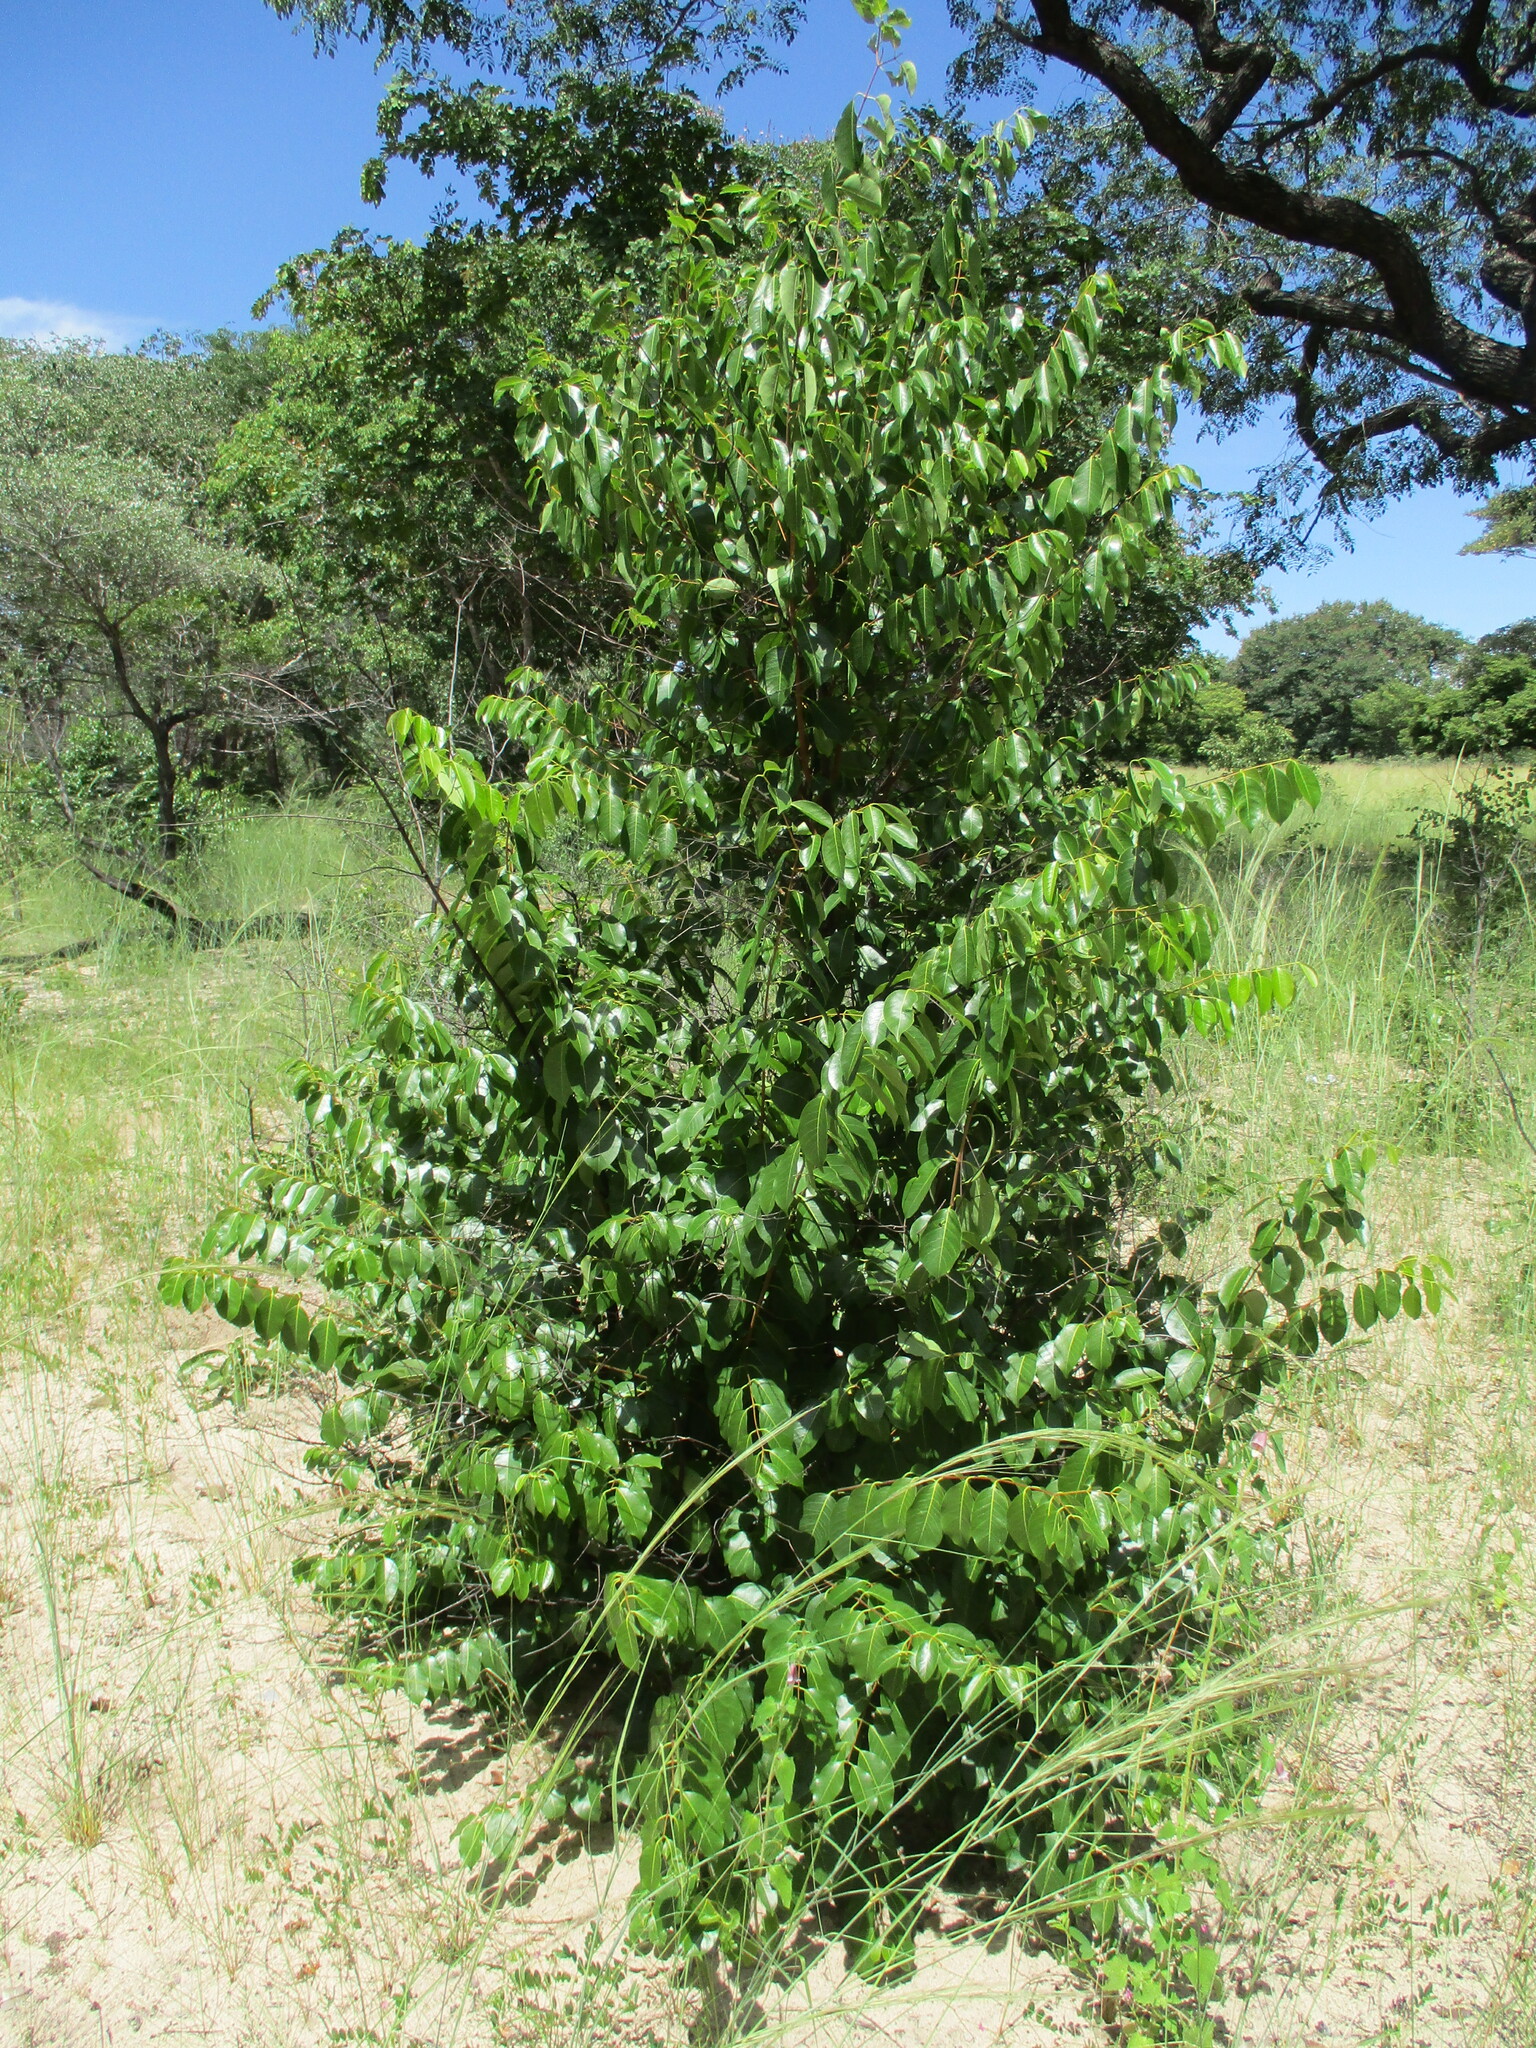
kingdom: Plantae
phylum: Tracheophyta
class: Magnoliopsida
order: Gentianales
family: Apocynaceae
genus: Diplorhynchus
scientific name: Diplorhynchus condylocarpon
